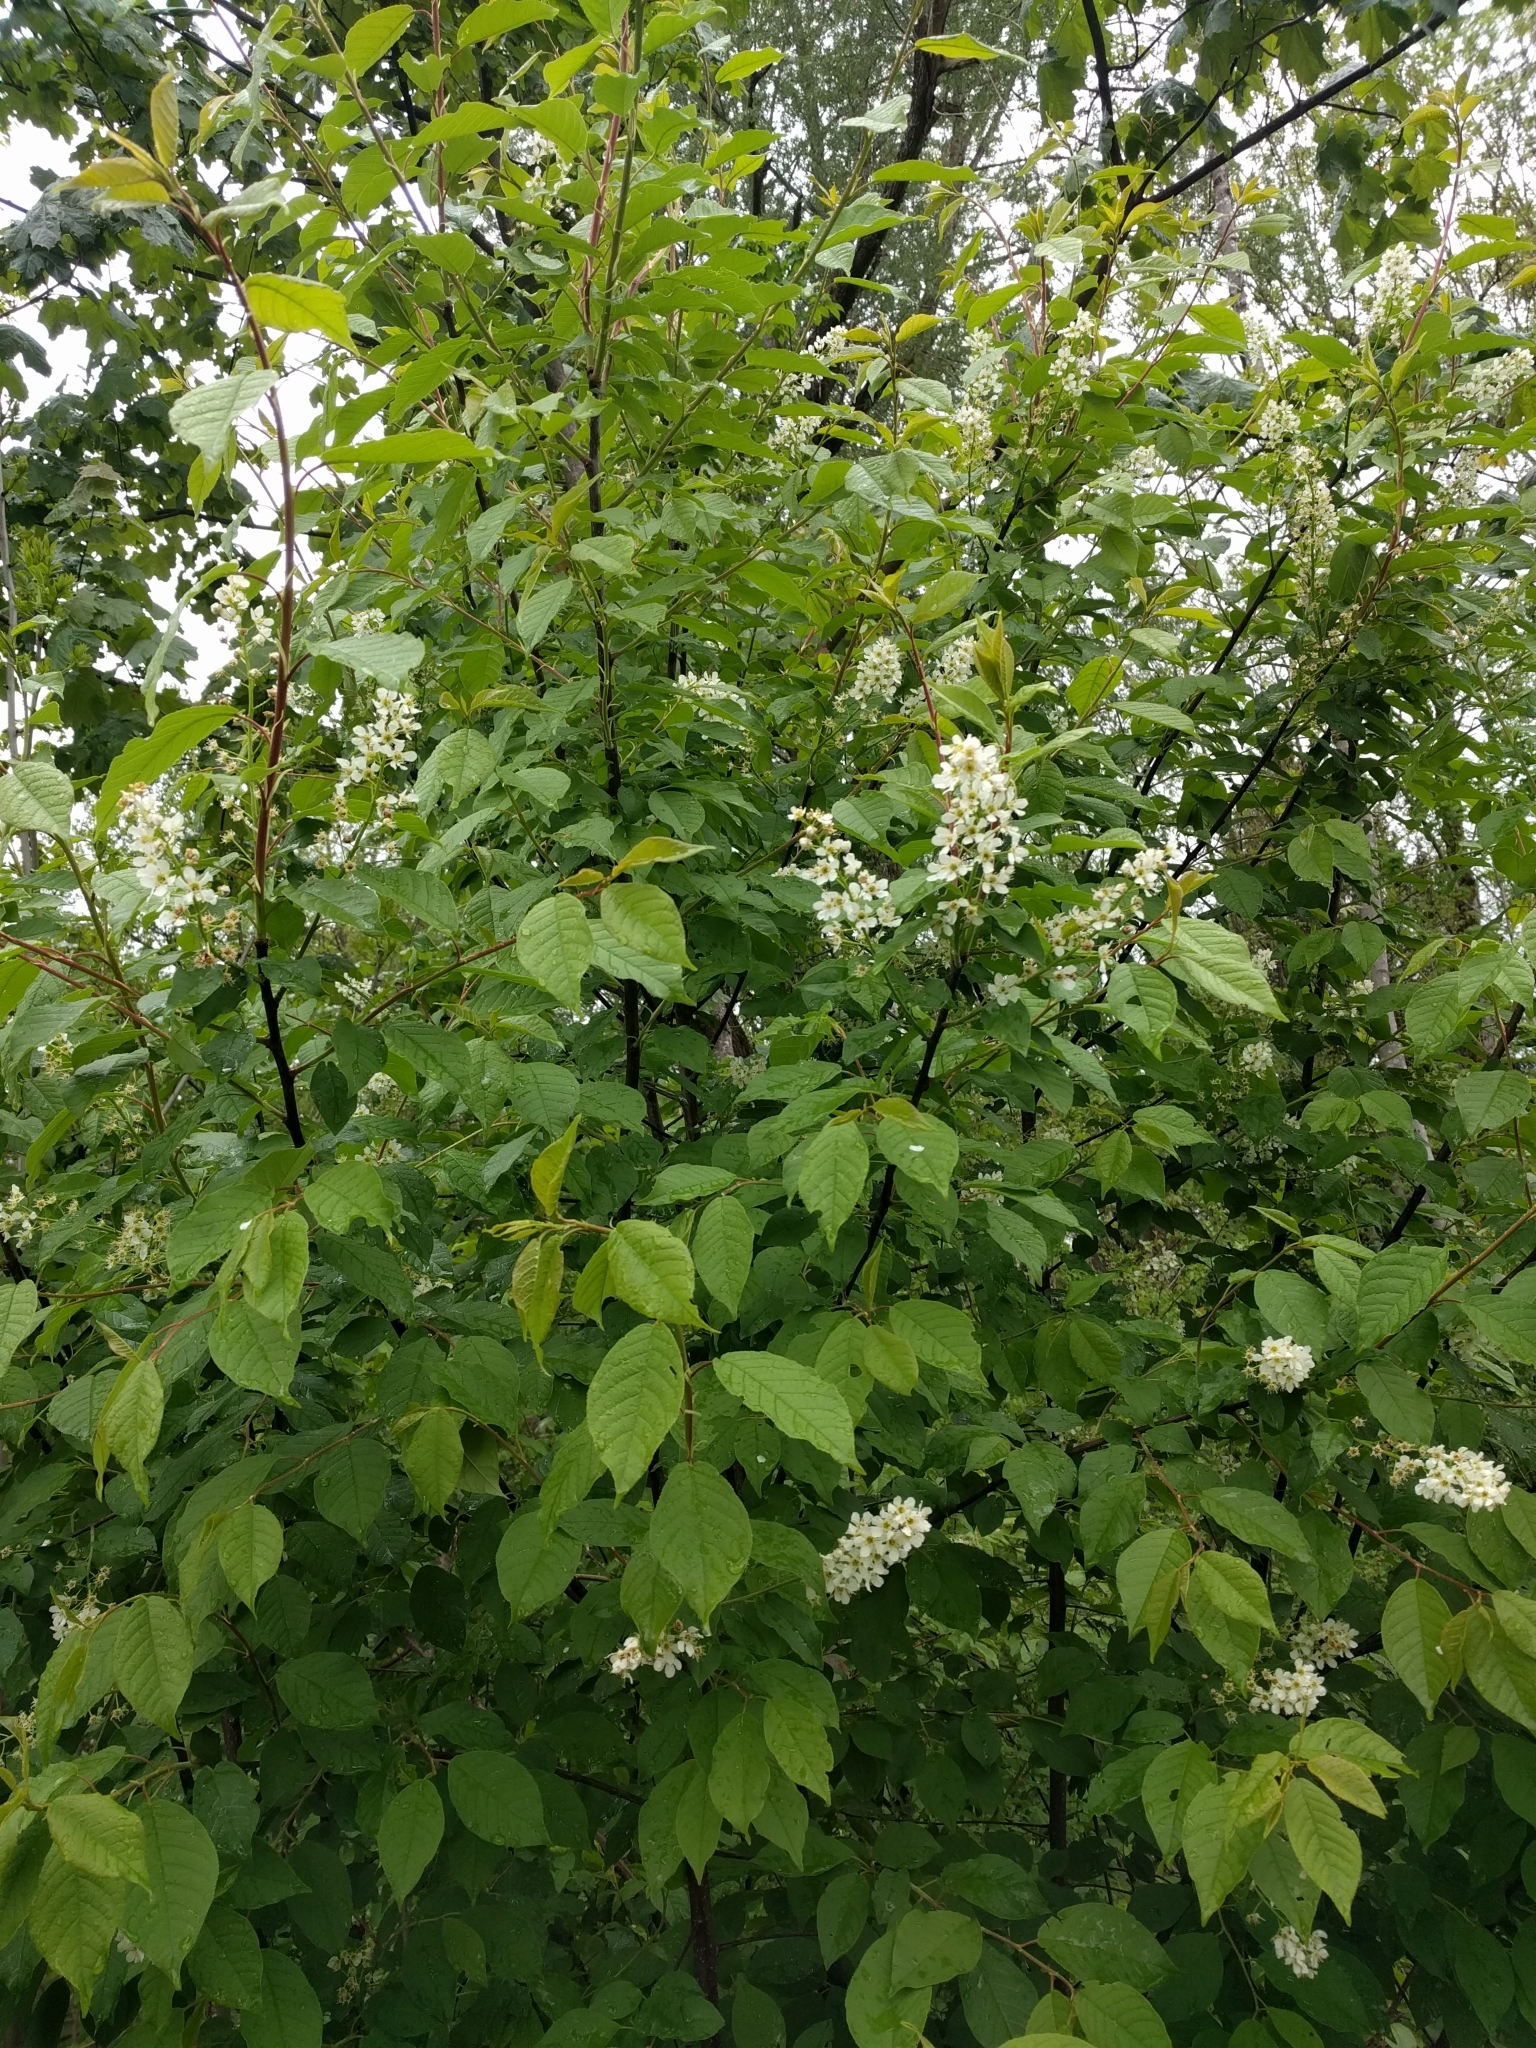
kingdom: Plantae
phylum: Tracheophyta
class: Magnoliopsida
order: Rosales
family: Rosaceae
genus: Prunus
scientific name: Prunus padus
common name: Bird cherry
